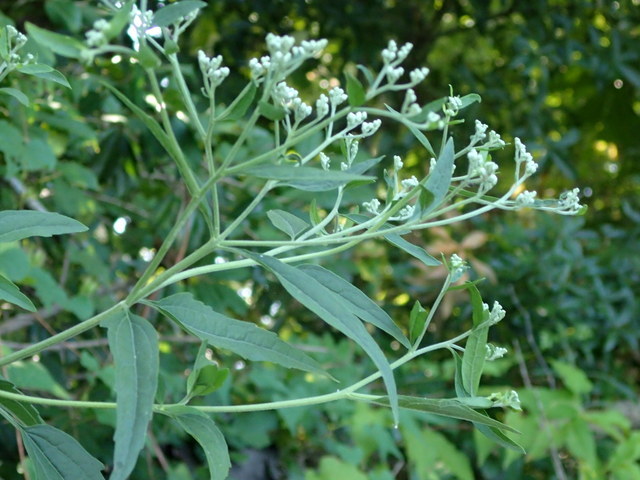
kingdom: Plantae
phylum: Tracheophyta
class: Magnoliopsida
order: Asterales
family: Asteraceae
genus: Eupatorium
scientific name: Eupatorium serotinum
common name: Late boneset
